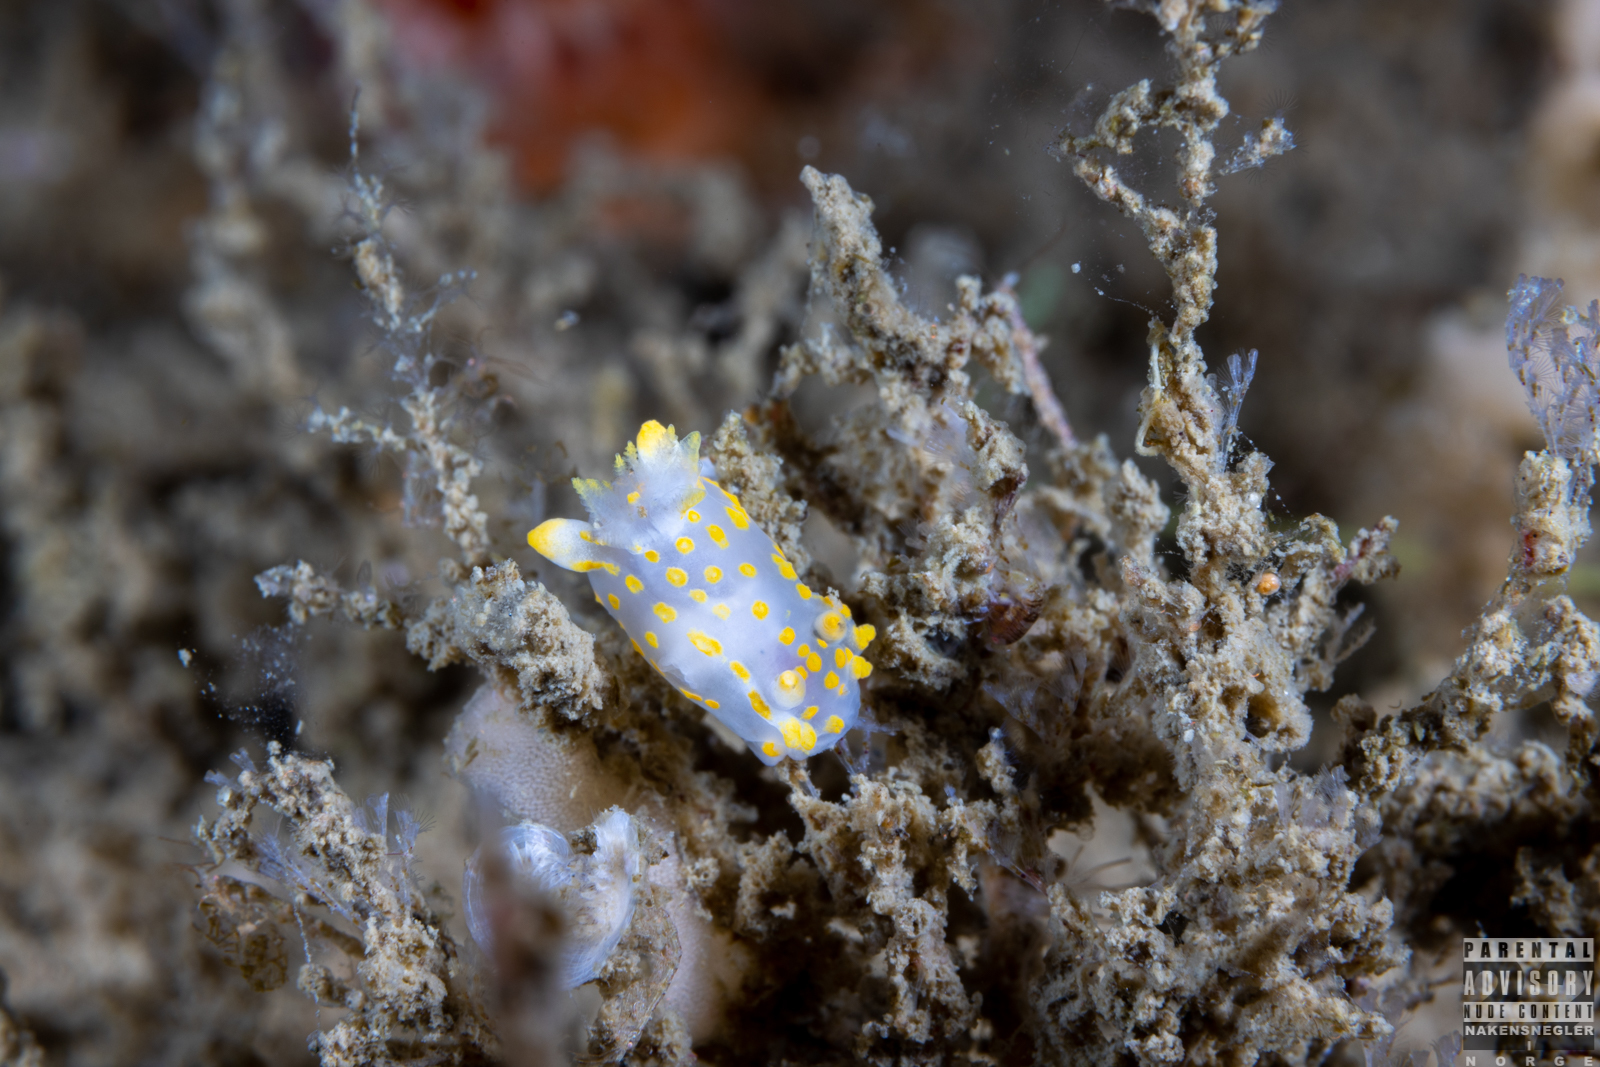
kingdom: Animalia
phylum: Mollusca
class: Gastropoda
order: Nudibranchia
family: Polyceridae
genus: Polycera
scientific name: Polycera quadrilineata
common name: Four-striped polycera
